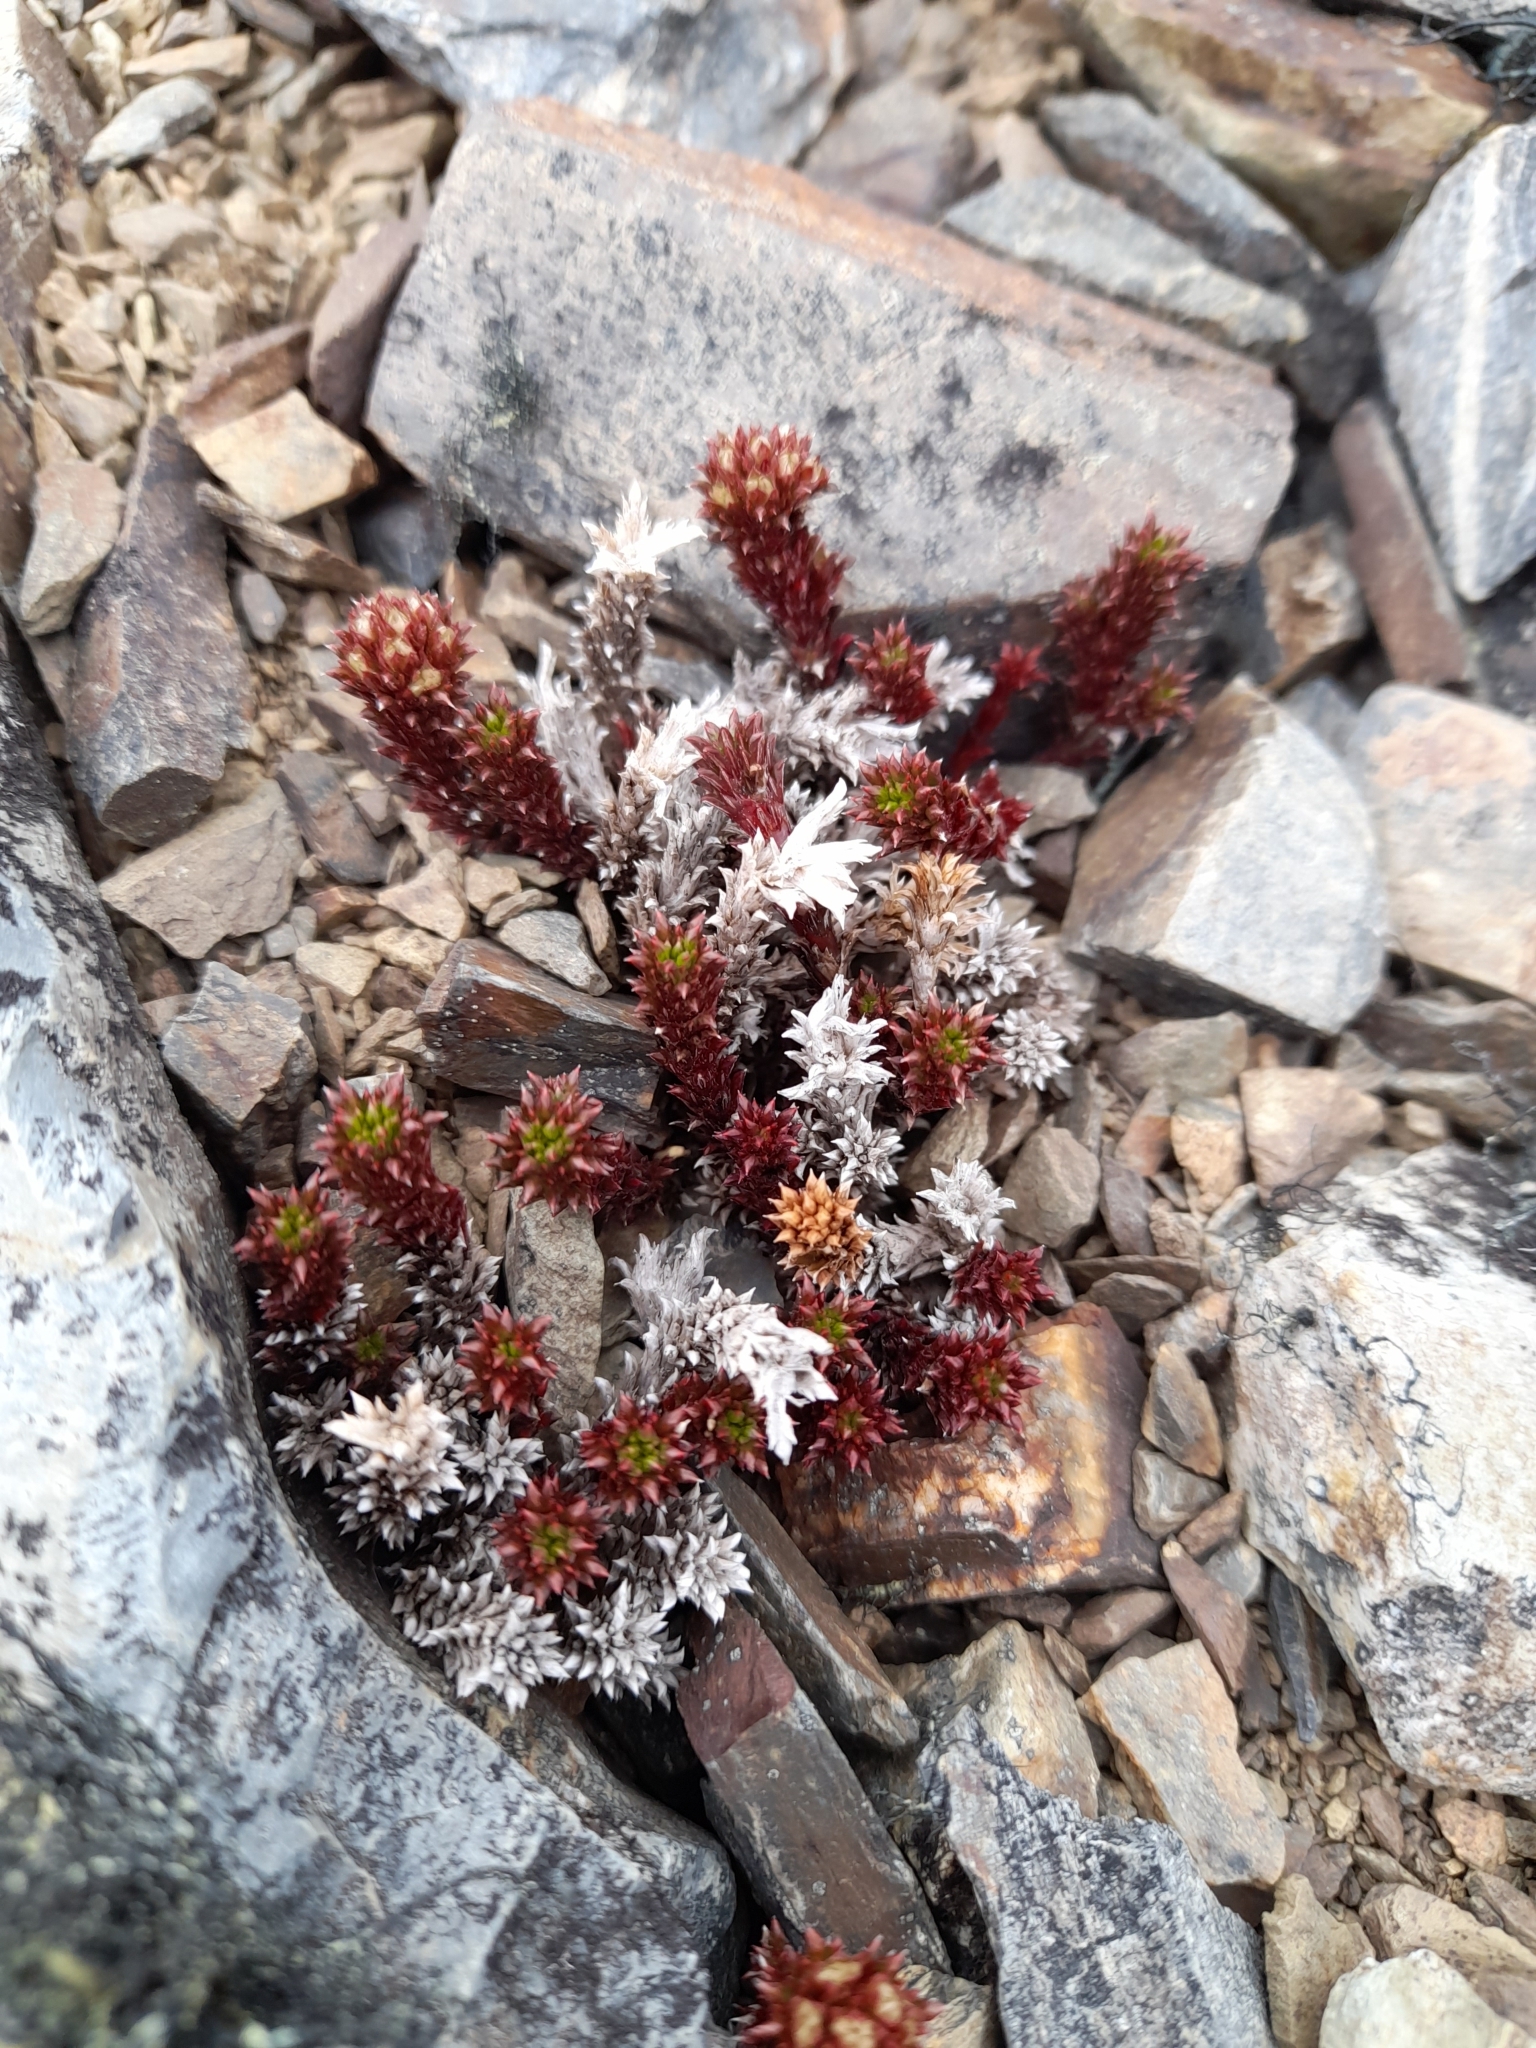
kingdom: Plantae
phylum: Tracheophyta
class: Magnoliopsida
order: Asterales
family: Asteraceae
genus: Nassauvia
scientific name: Nassauvia pygmaea
